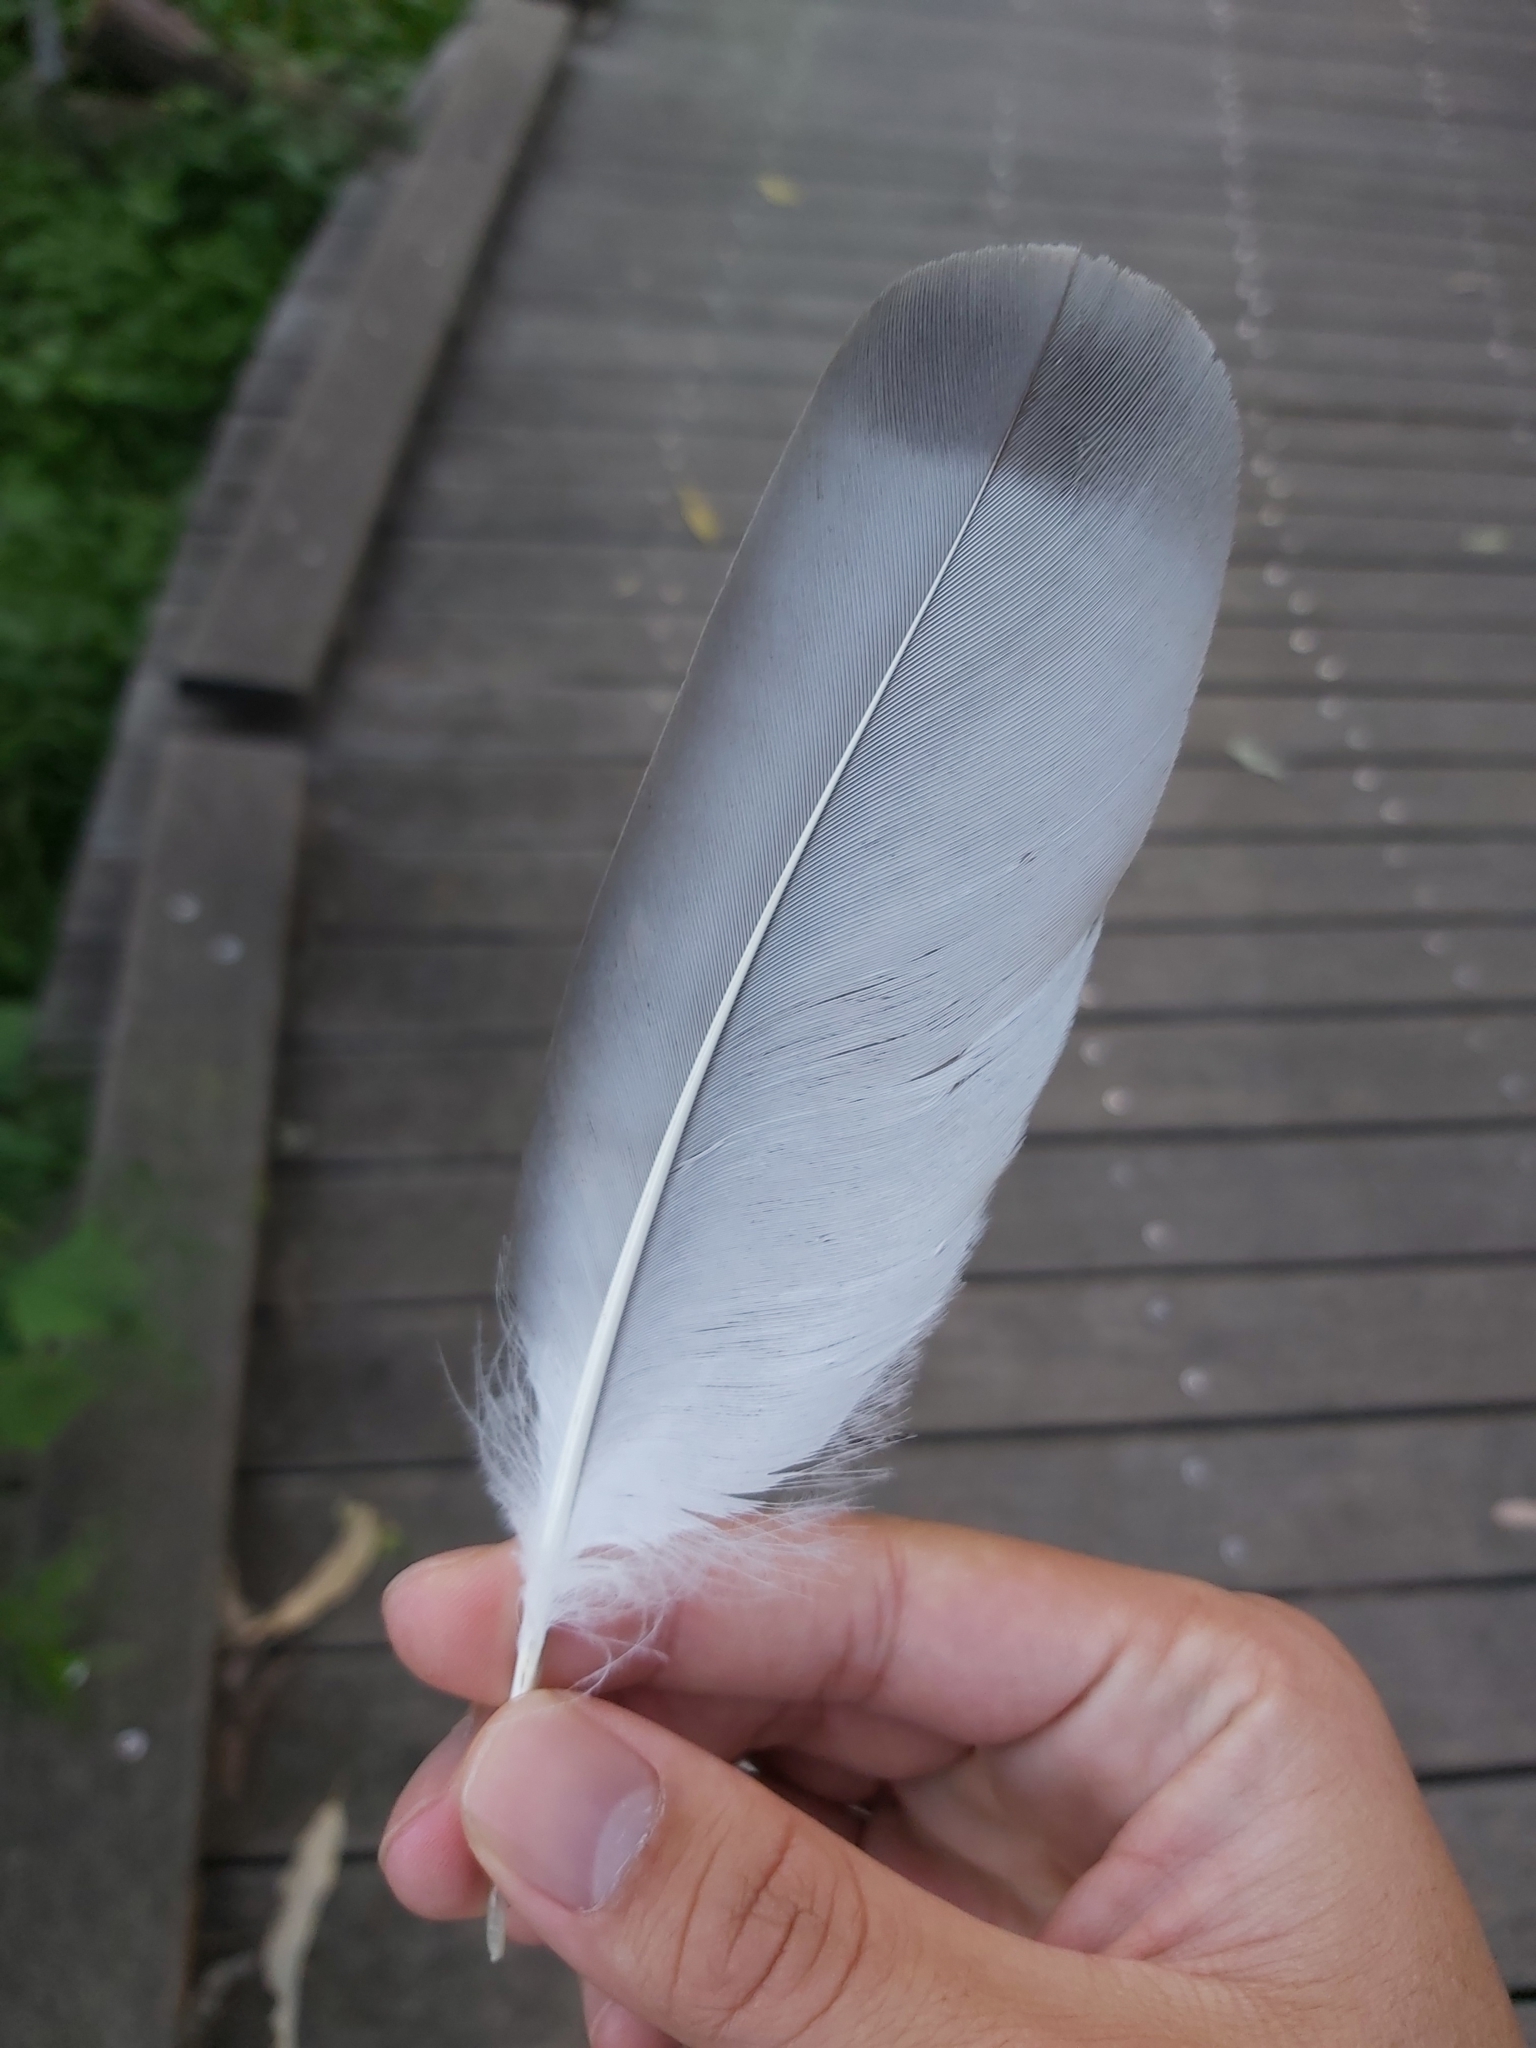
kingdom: Animalia
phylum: Chordata
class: Aves
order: Accipitriformes
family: Accipitridae
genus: Aviceda
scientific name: Aviceda subcristata
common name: Pacific baza
